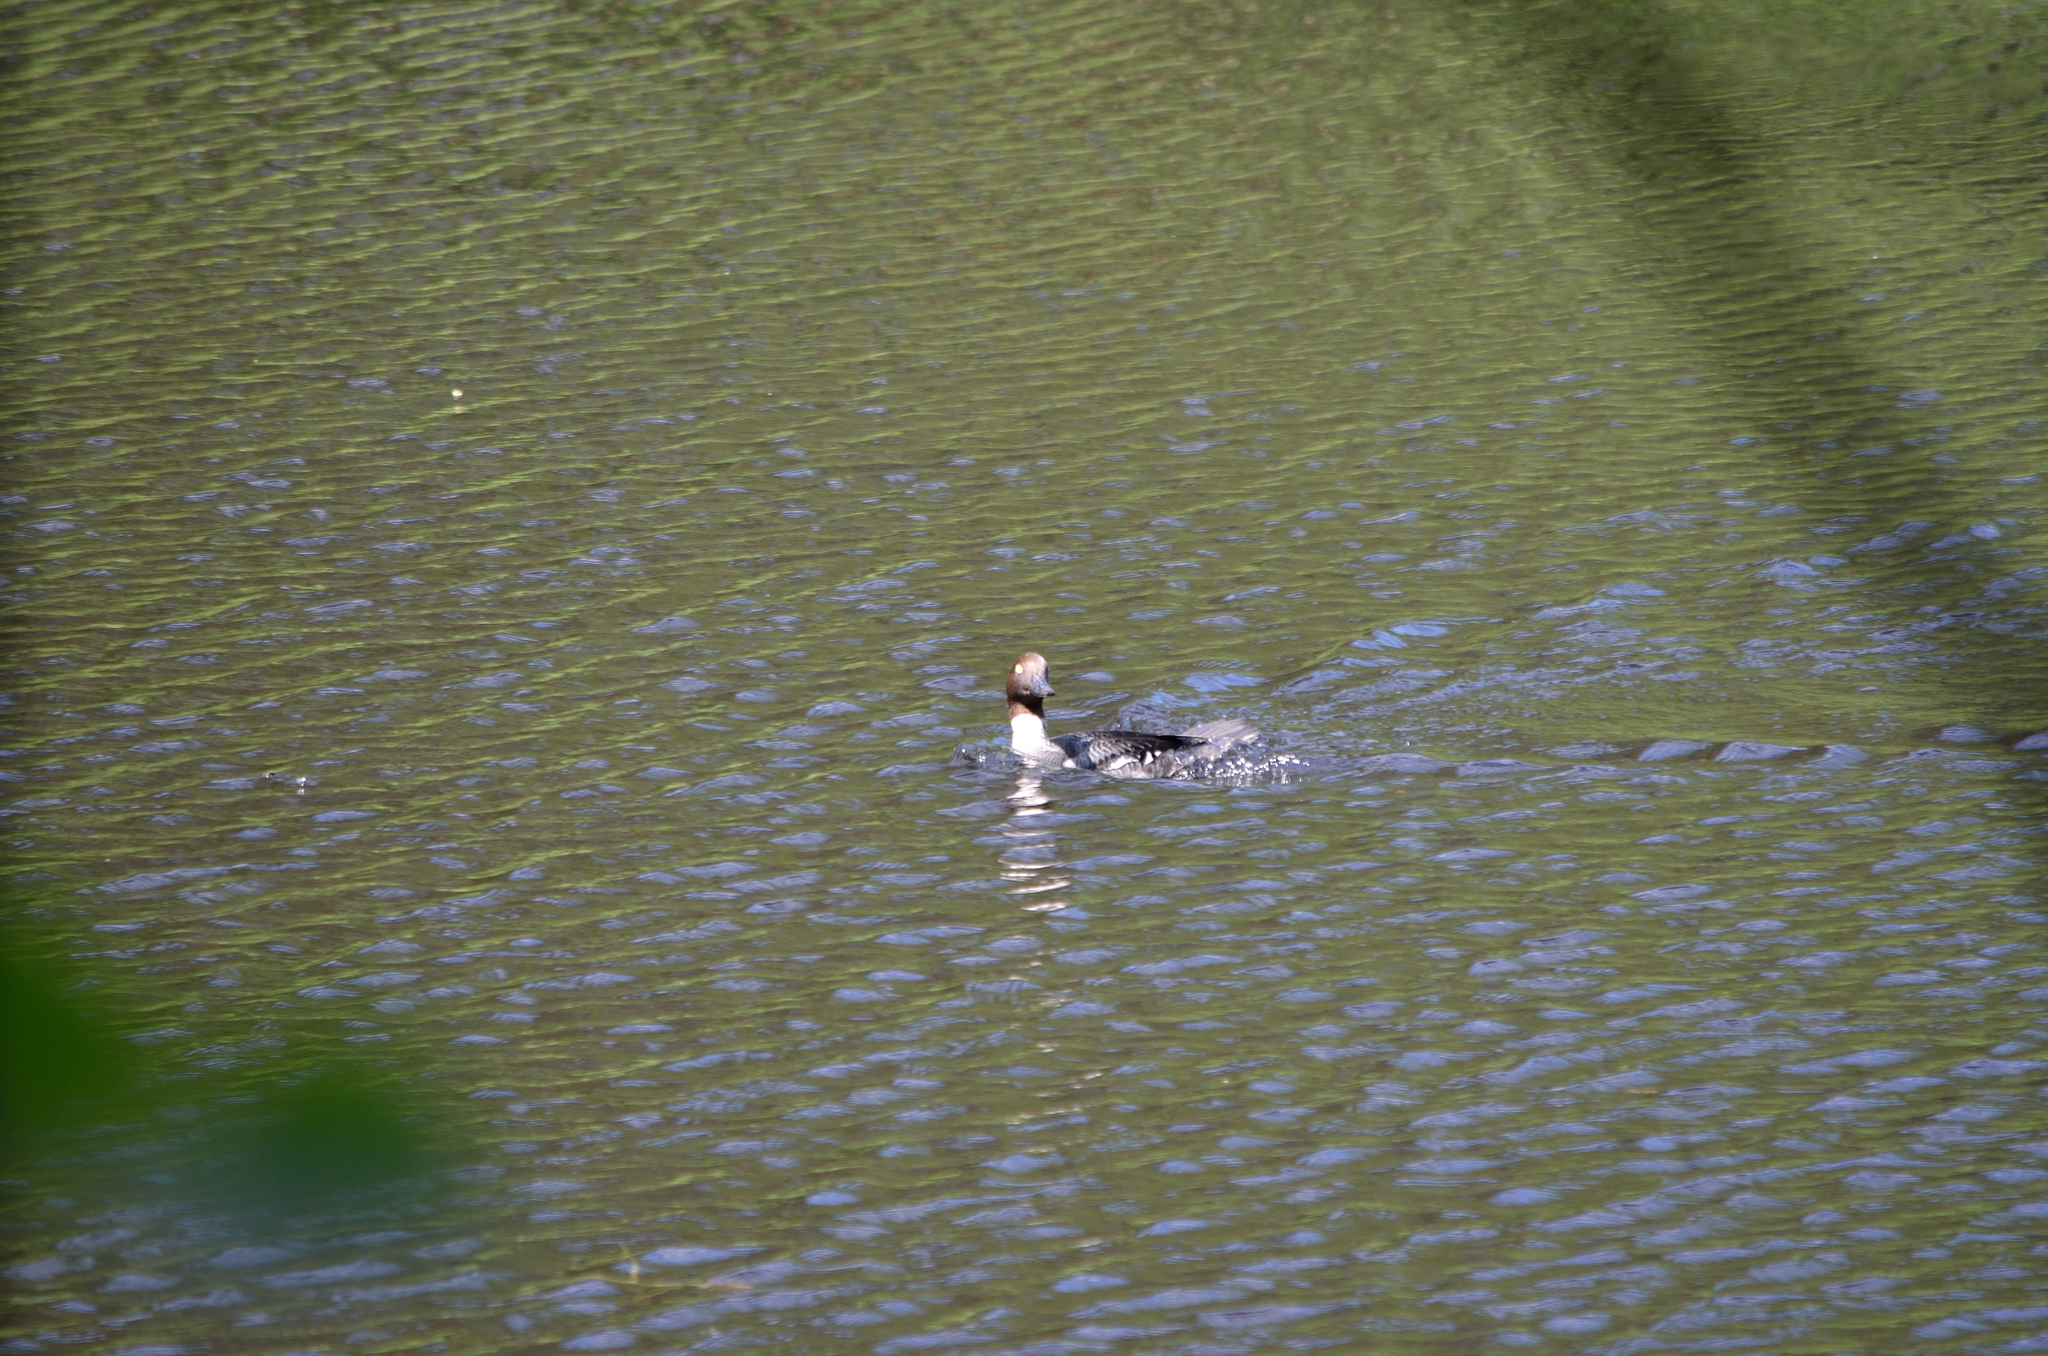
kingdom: Animalia
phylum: Chordata
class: Aves
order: Anseriformes
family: Anatidae
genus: Bucephala
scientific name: Bucephala clangula
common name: Common goldeneye
